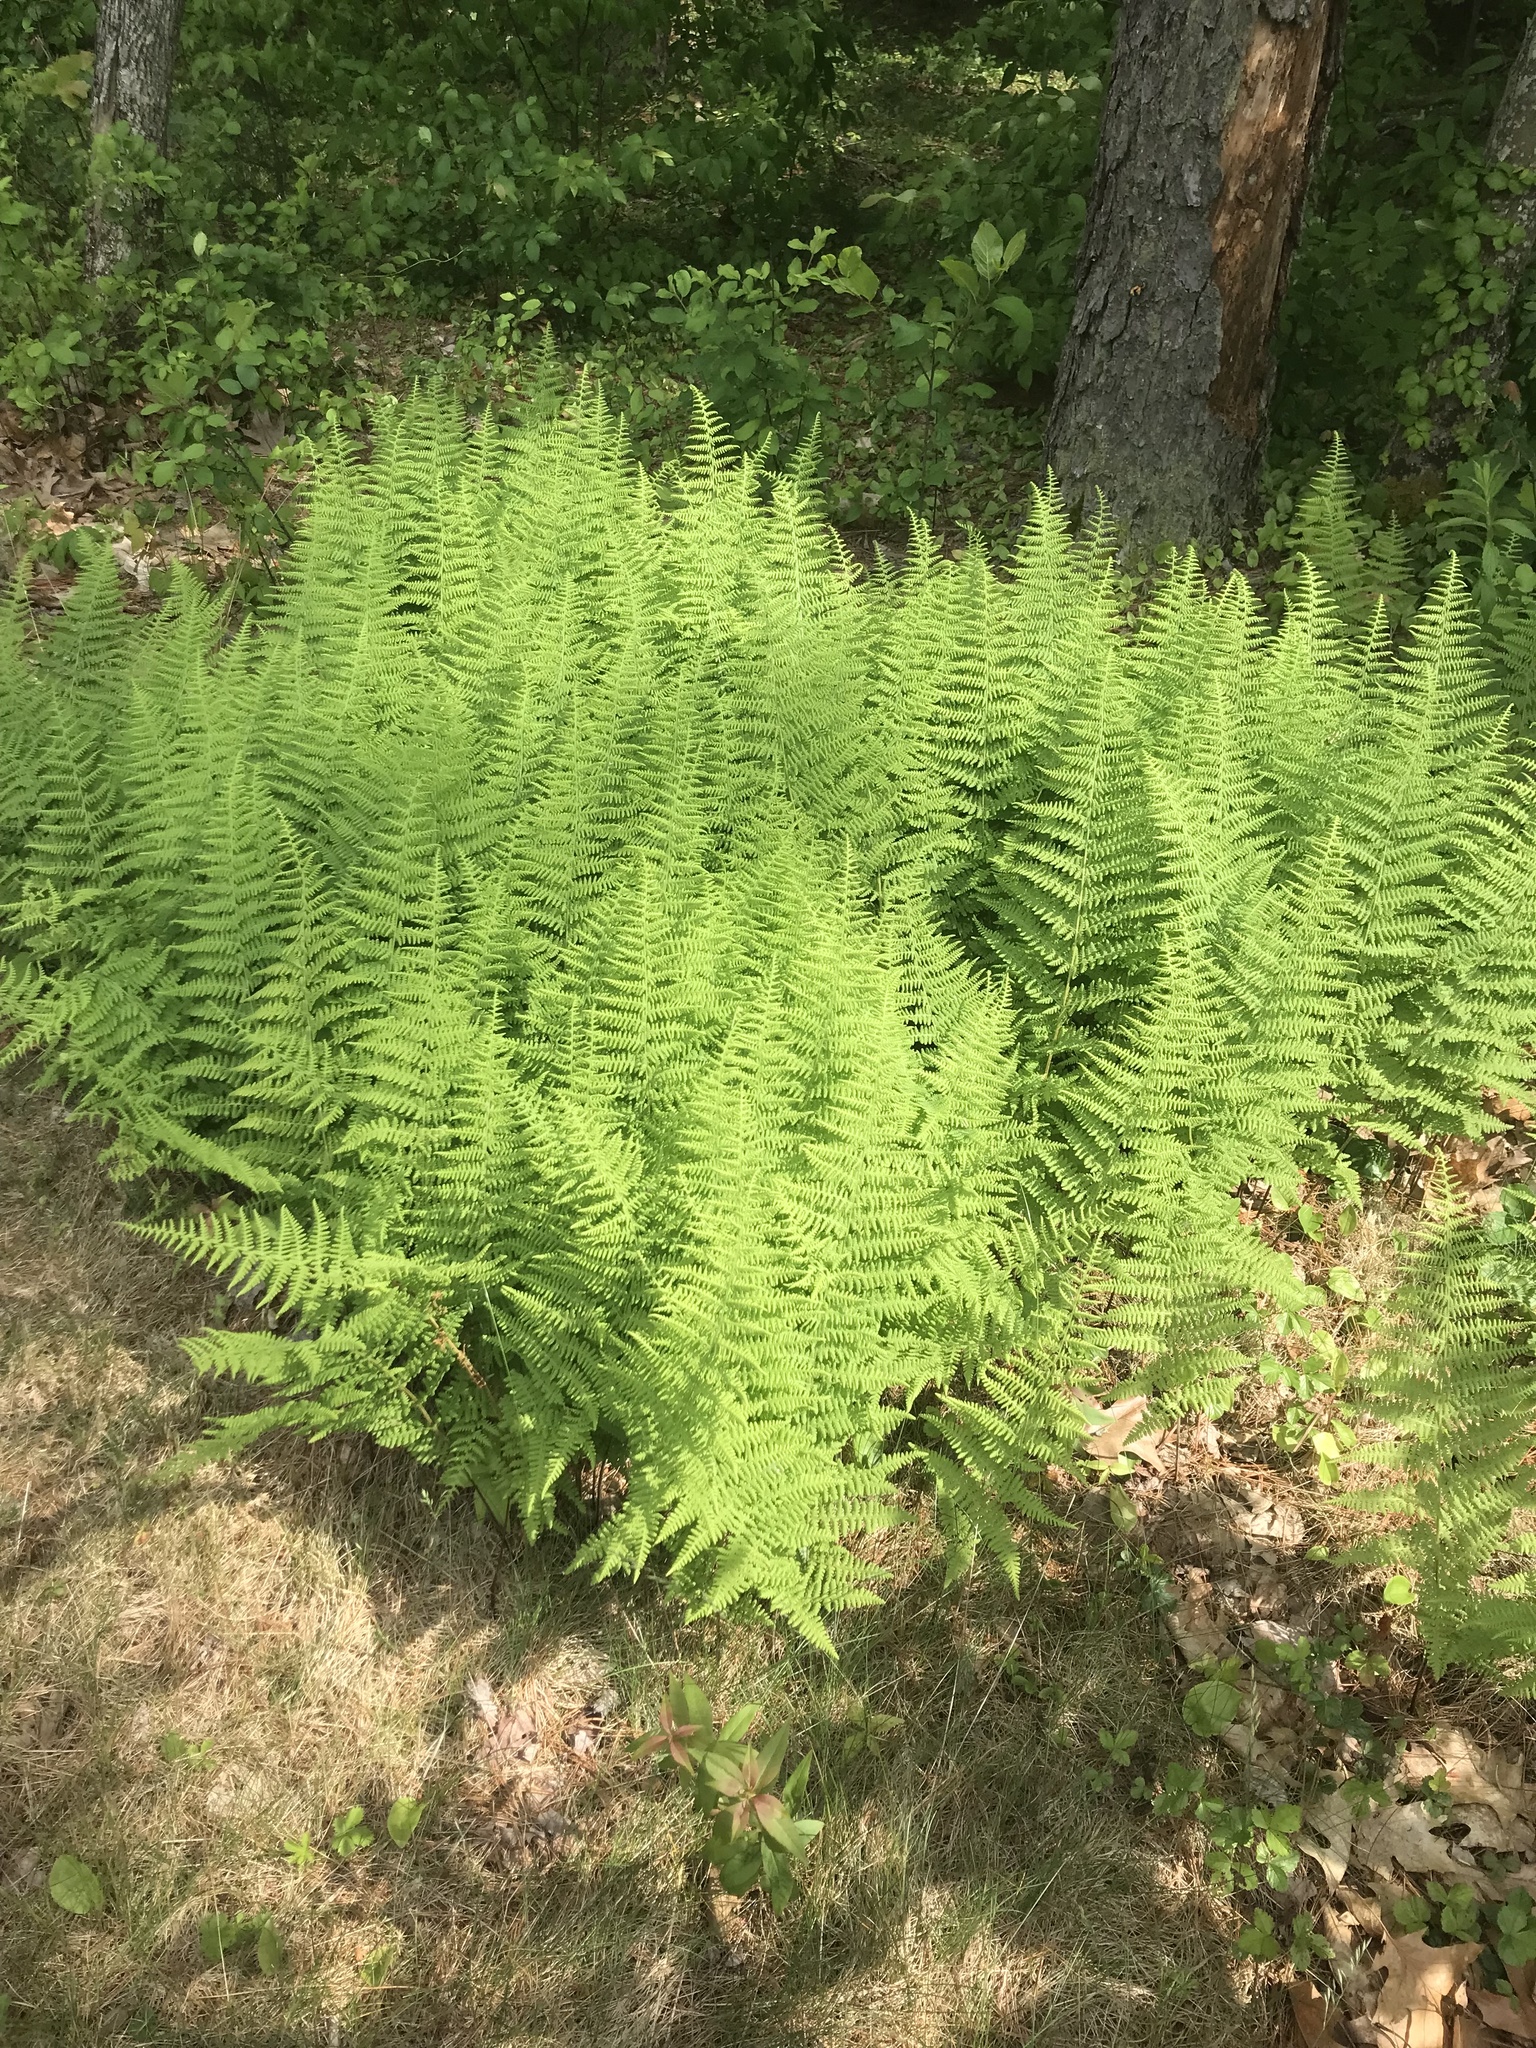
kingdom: Plantae
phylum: Tracheophyta
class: Polypodiopsida
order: Polypodiales
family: Dennstaedtiaceae
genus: Sitobolium
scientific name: Sitobolium punctilobum
